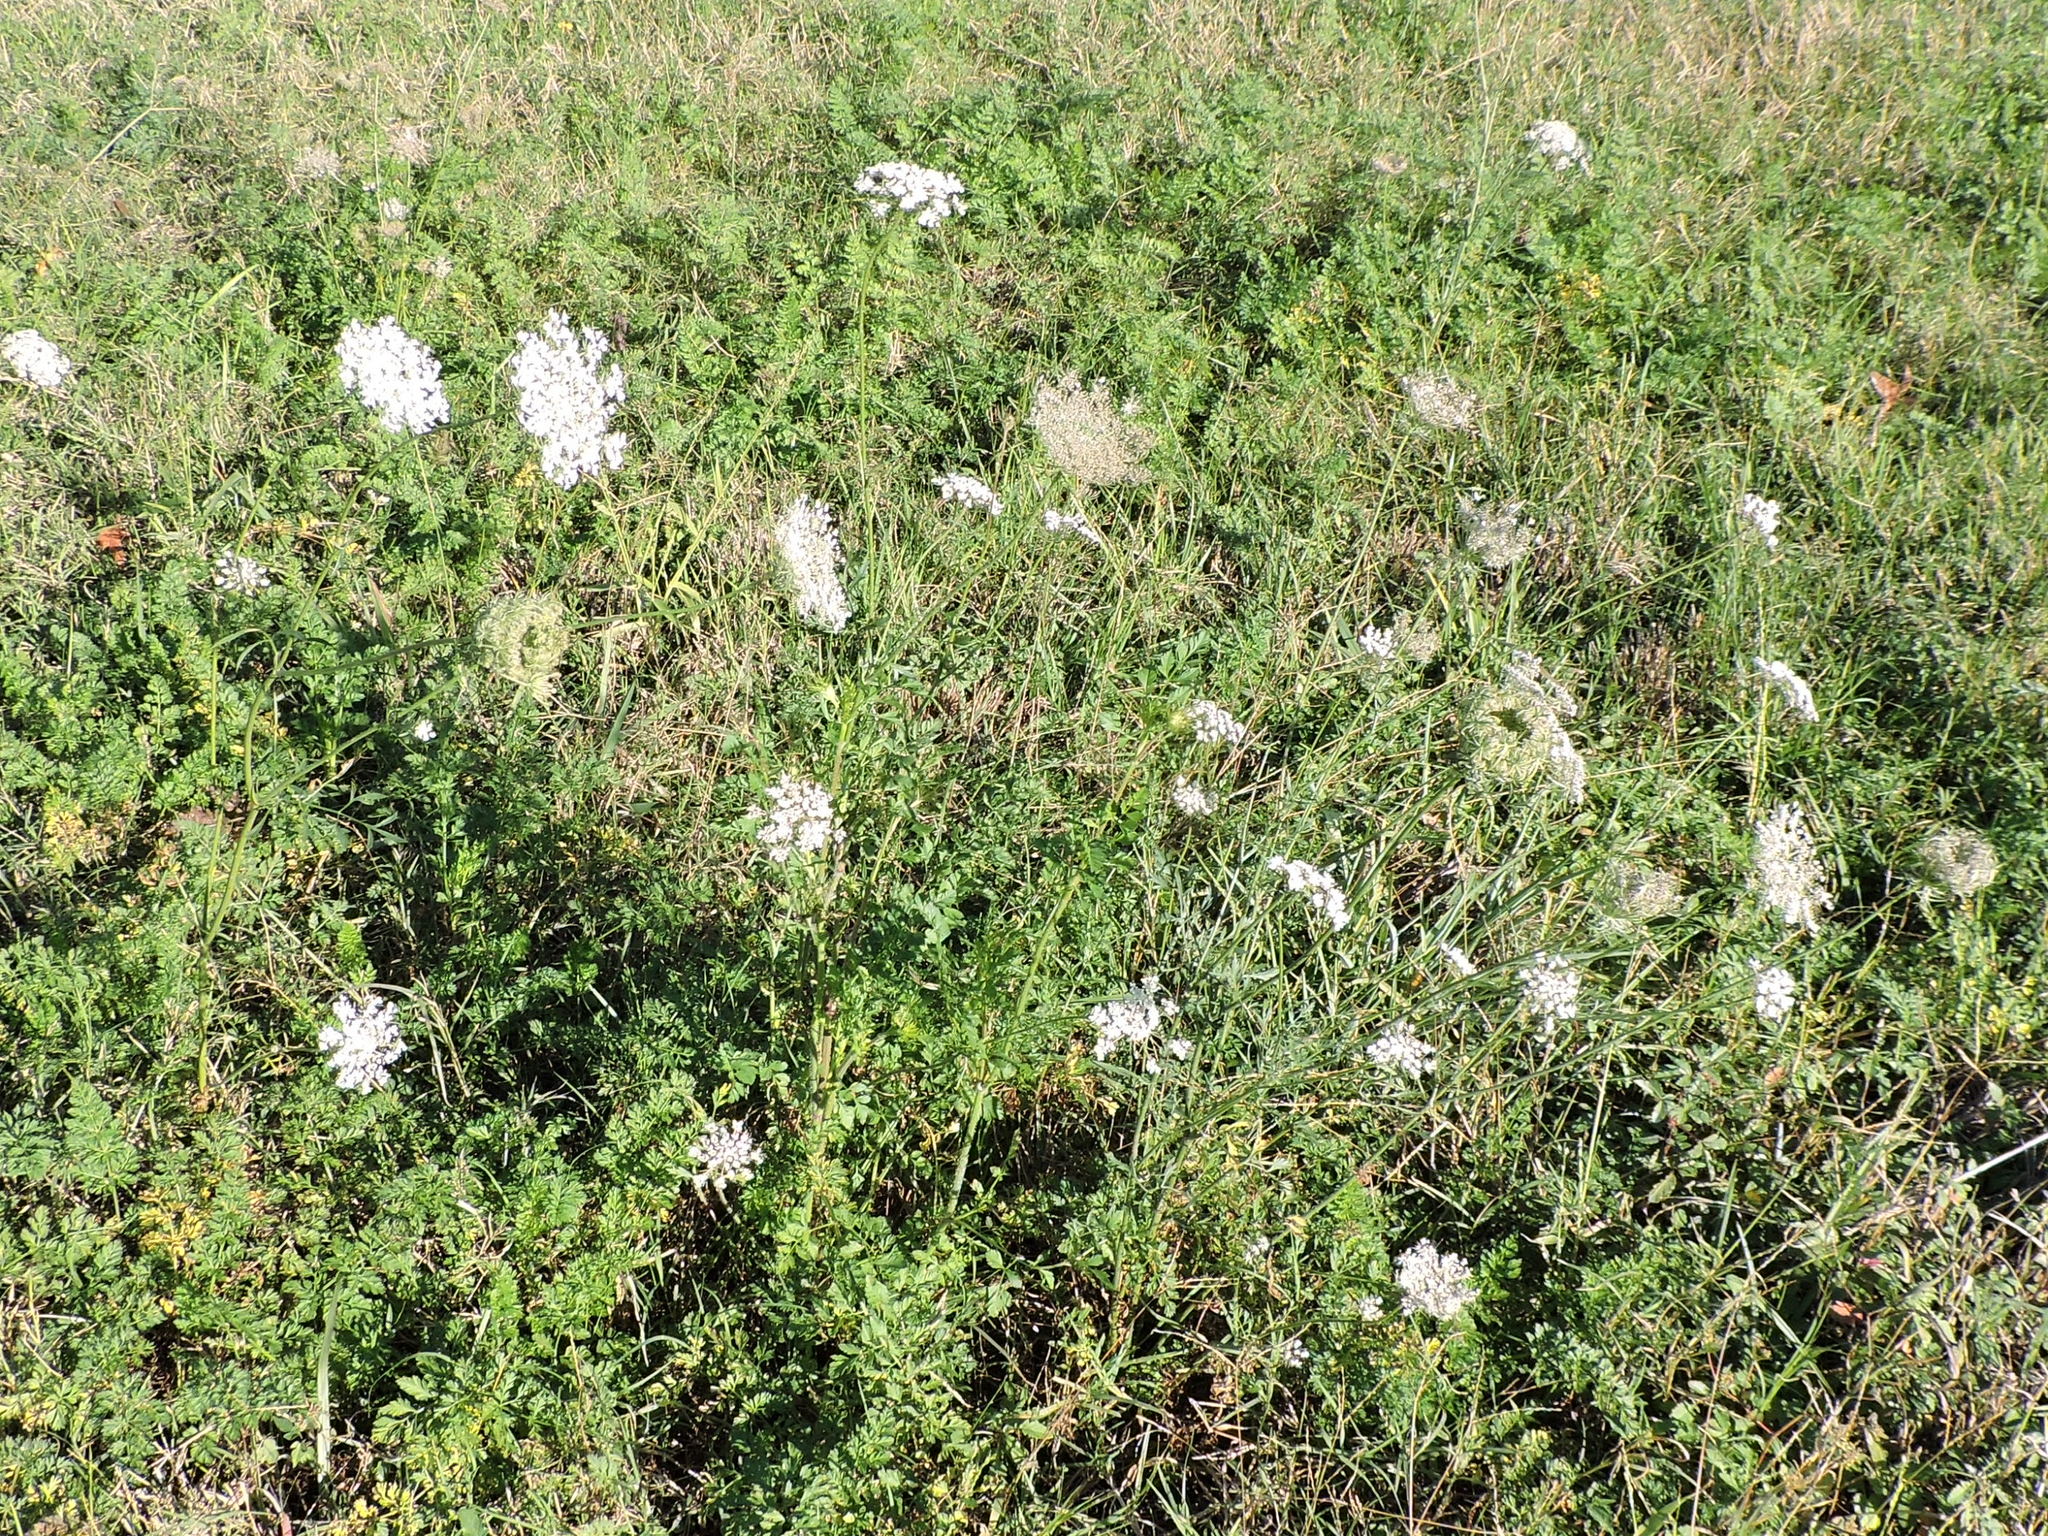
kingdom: Plantae
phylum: Tracheophyta
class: Magnoliopsida
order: Apiales
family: Apiaceae
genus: Daucus
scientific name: Daucus carota
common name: Wild carrot
